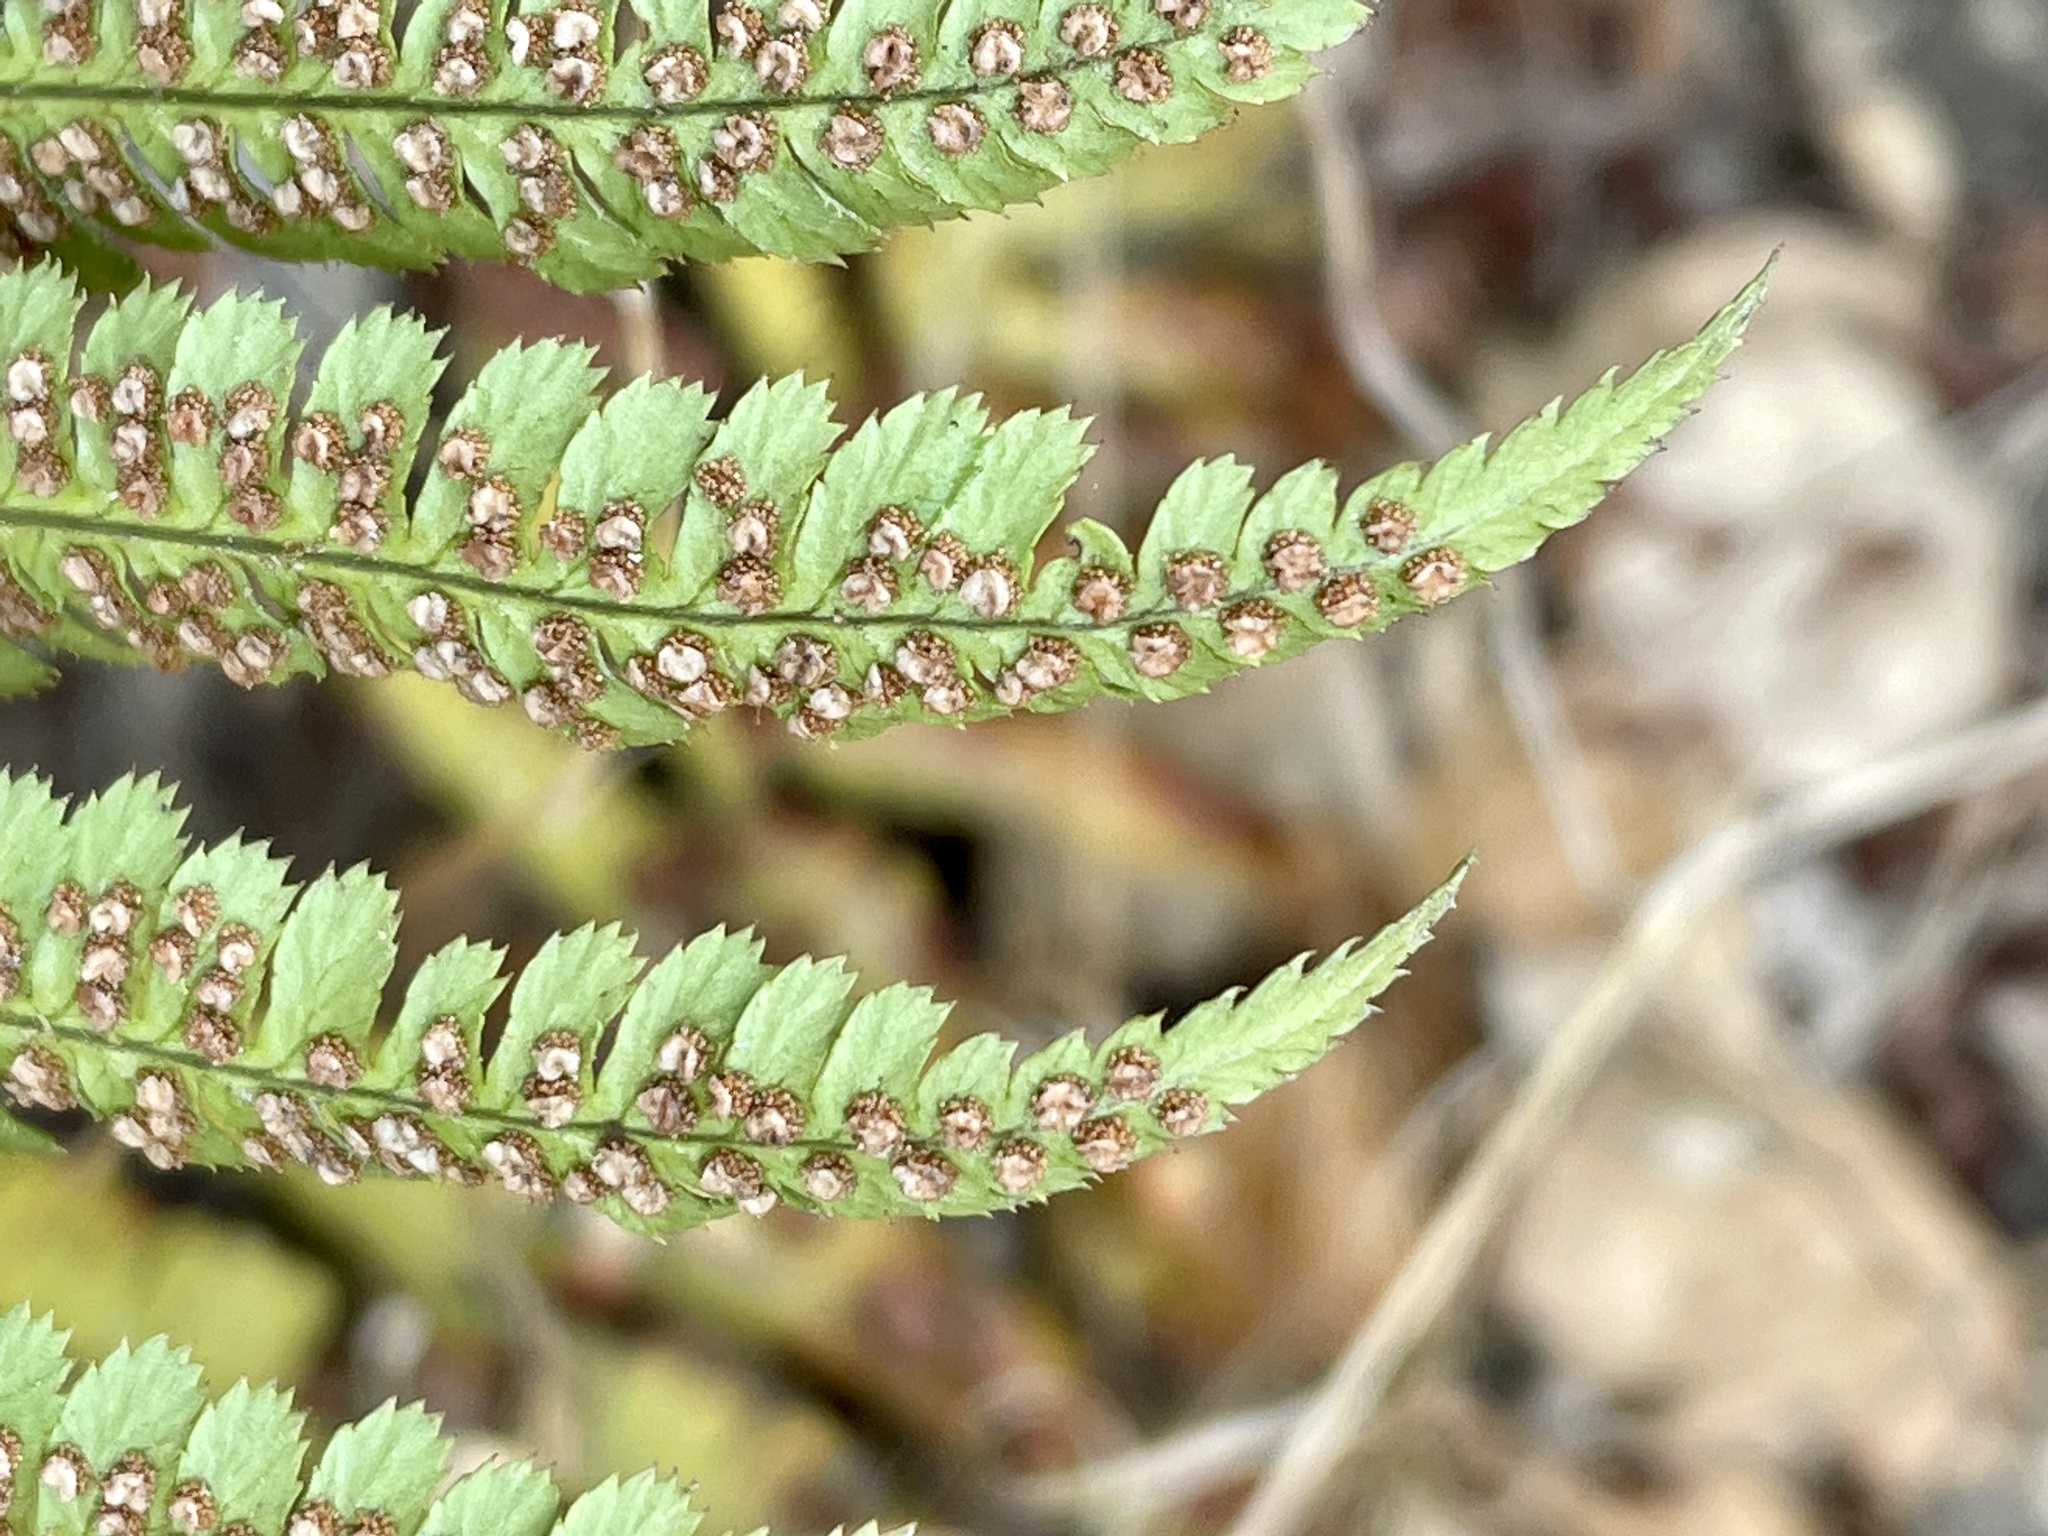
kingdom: Plantae
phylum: Tracheophyta
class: Polypodiopsida
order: Polypodiales
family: Dryopteridaceae
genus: Dryopteris
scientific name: Dryopteris arguta
